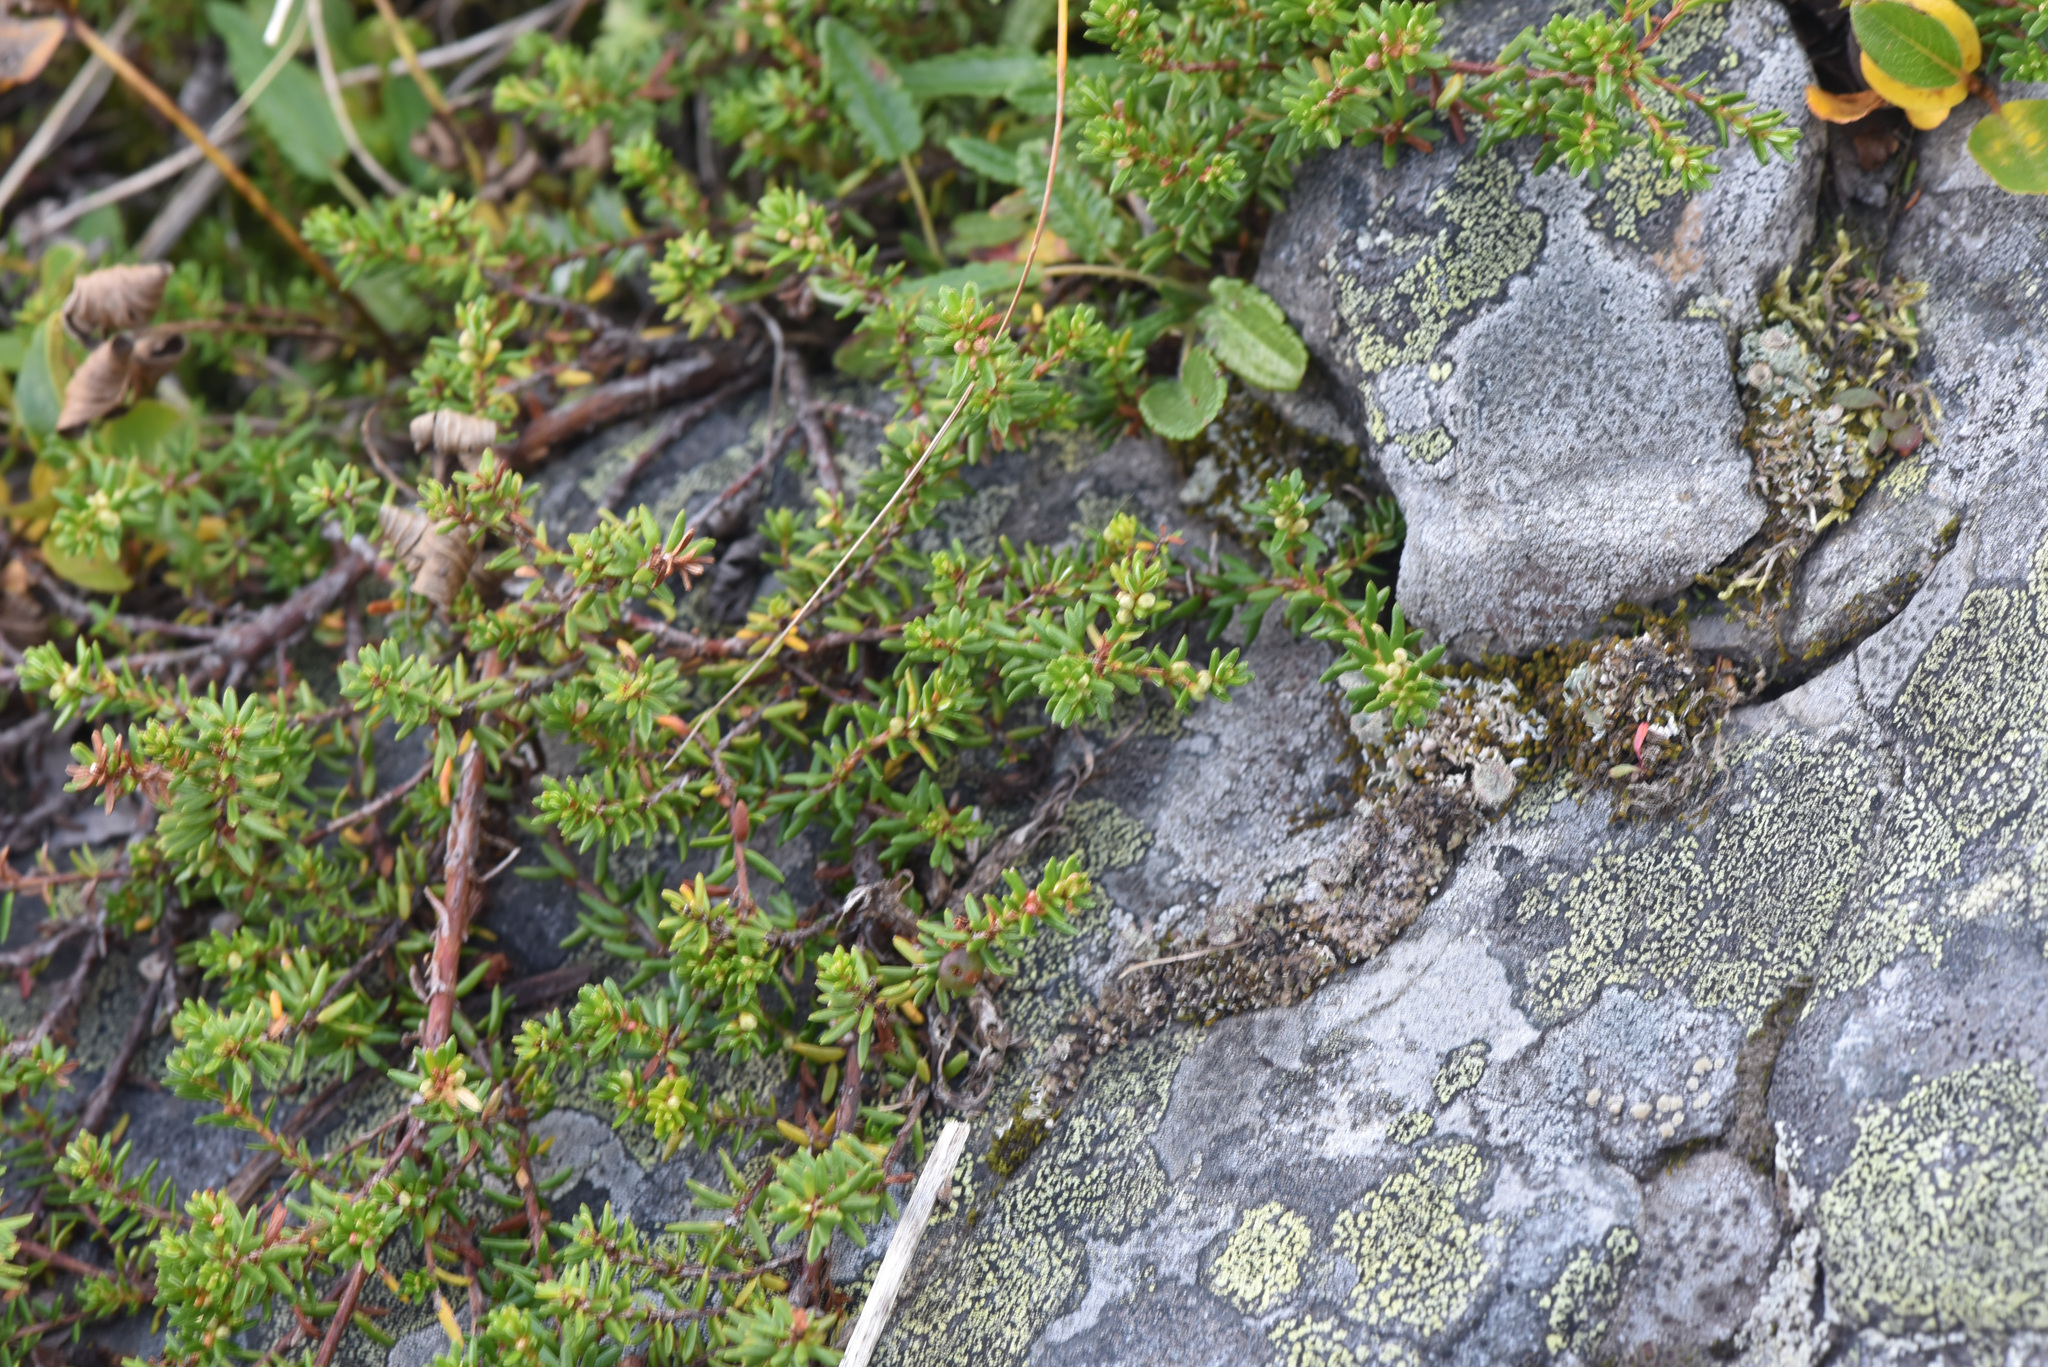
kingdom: Plantae
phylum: Tracheophyta
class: Magnoliopsida
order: Ericales
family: Ericaceae
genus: Empetrum
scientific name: Empetrum nigrum
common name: Black crowberry
